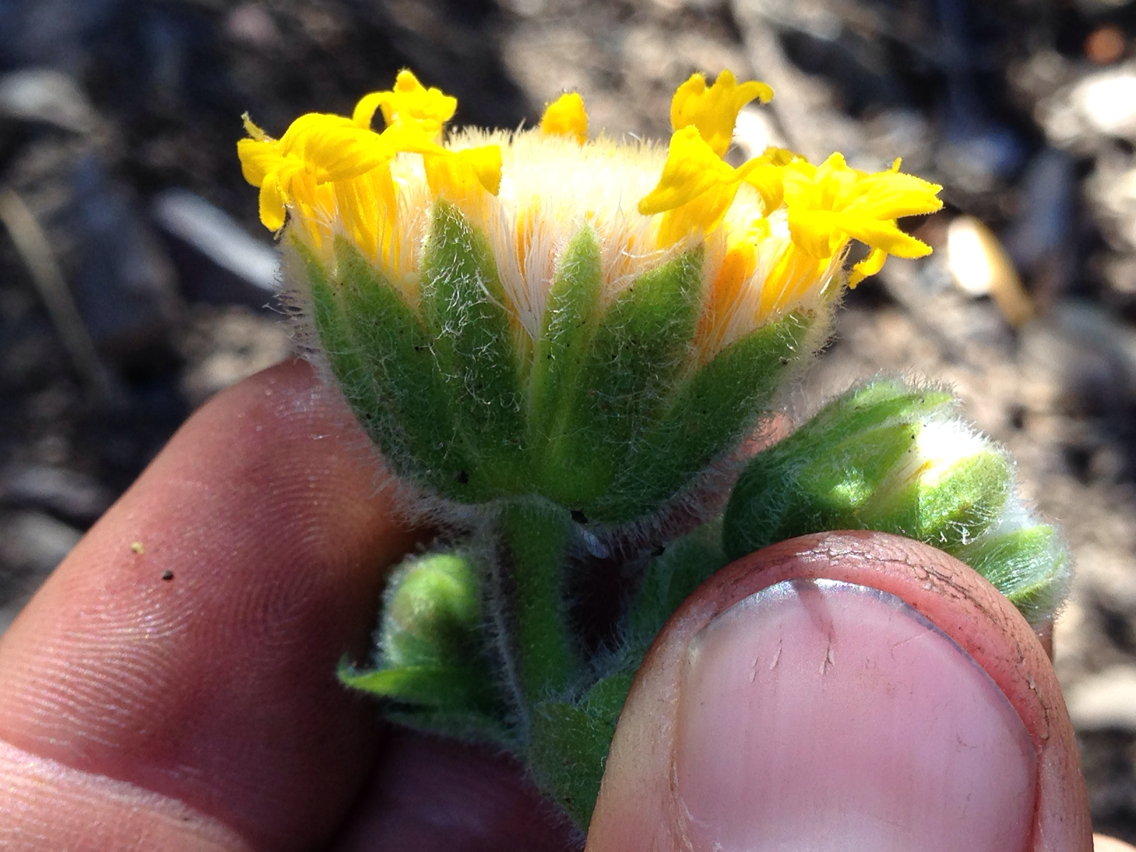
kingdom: Plantae
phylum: Tracheophyta
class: Magnoliopsida
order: Asterales
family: Asteraceae
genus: Arnica
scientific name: Arnica discoidea
